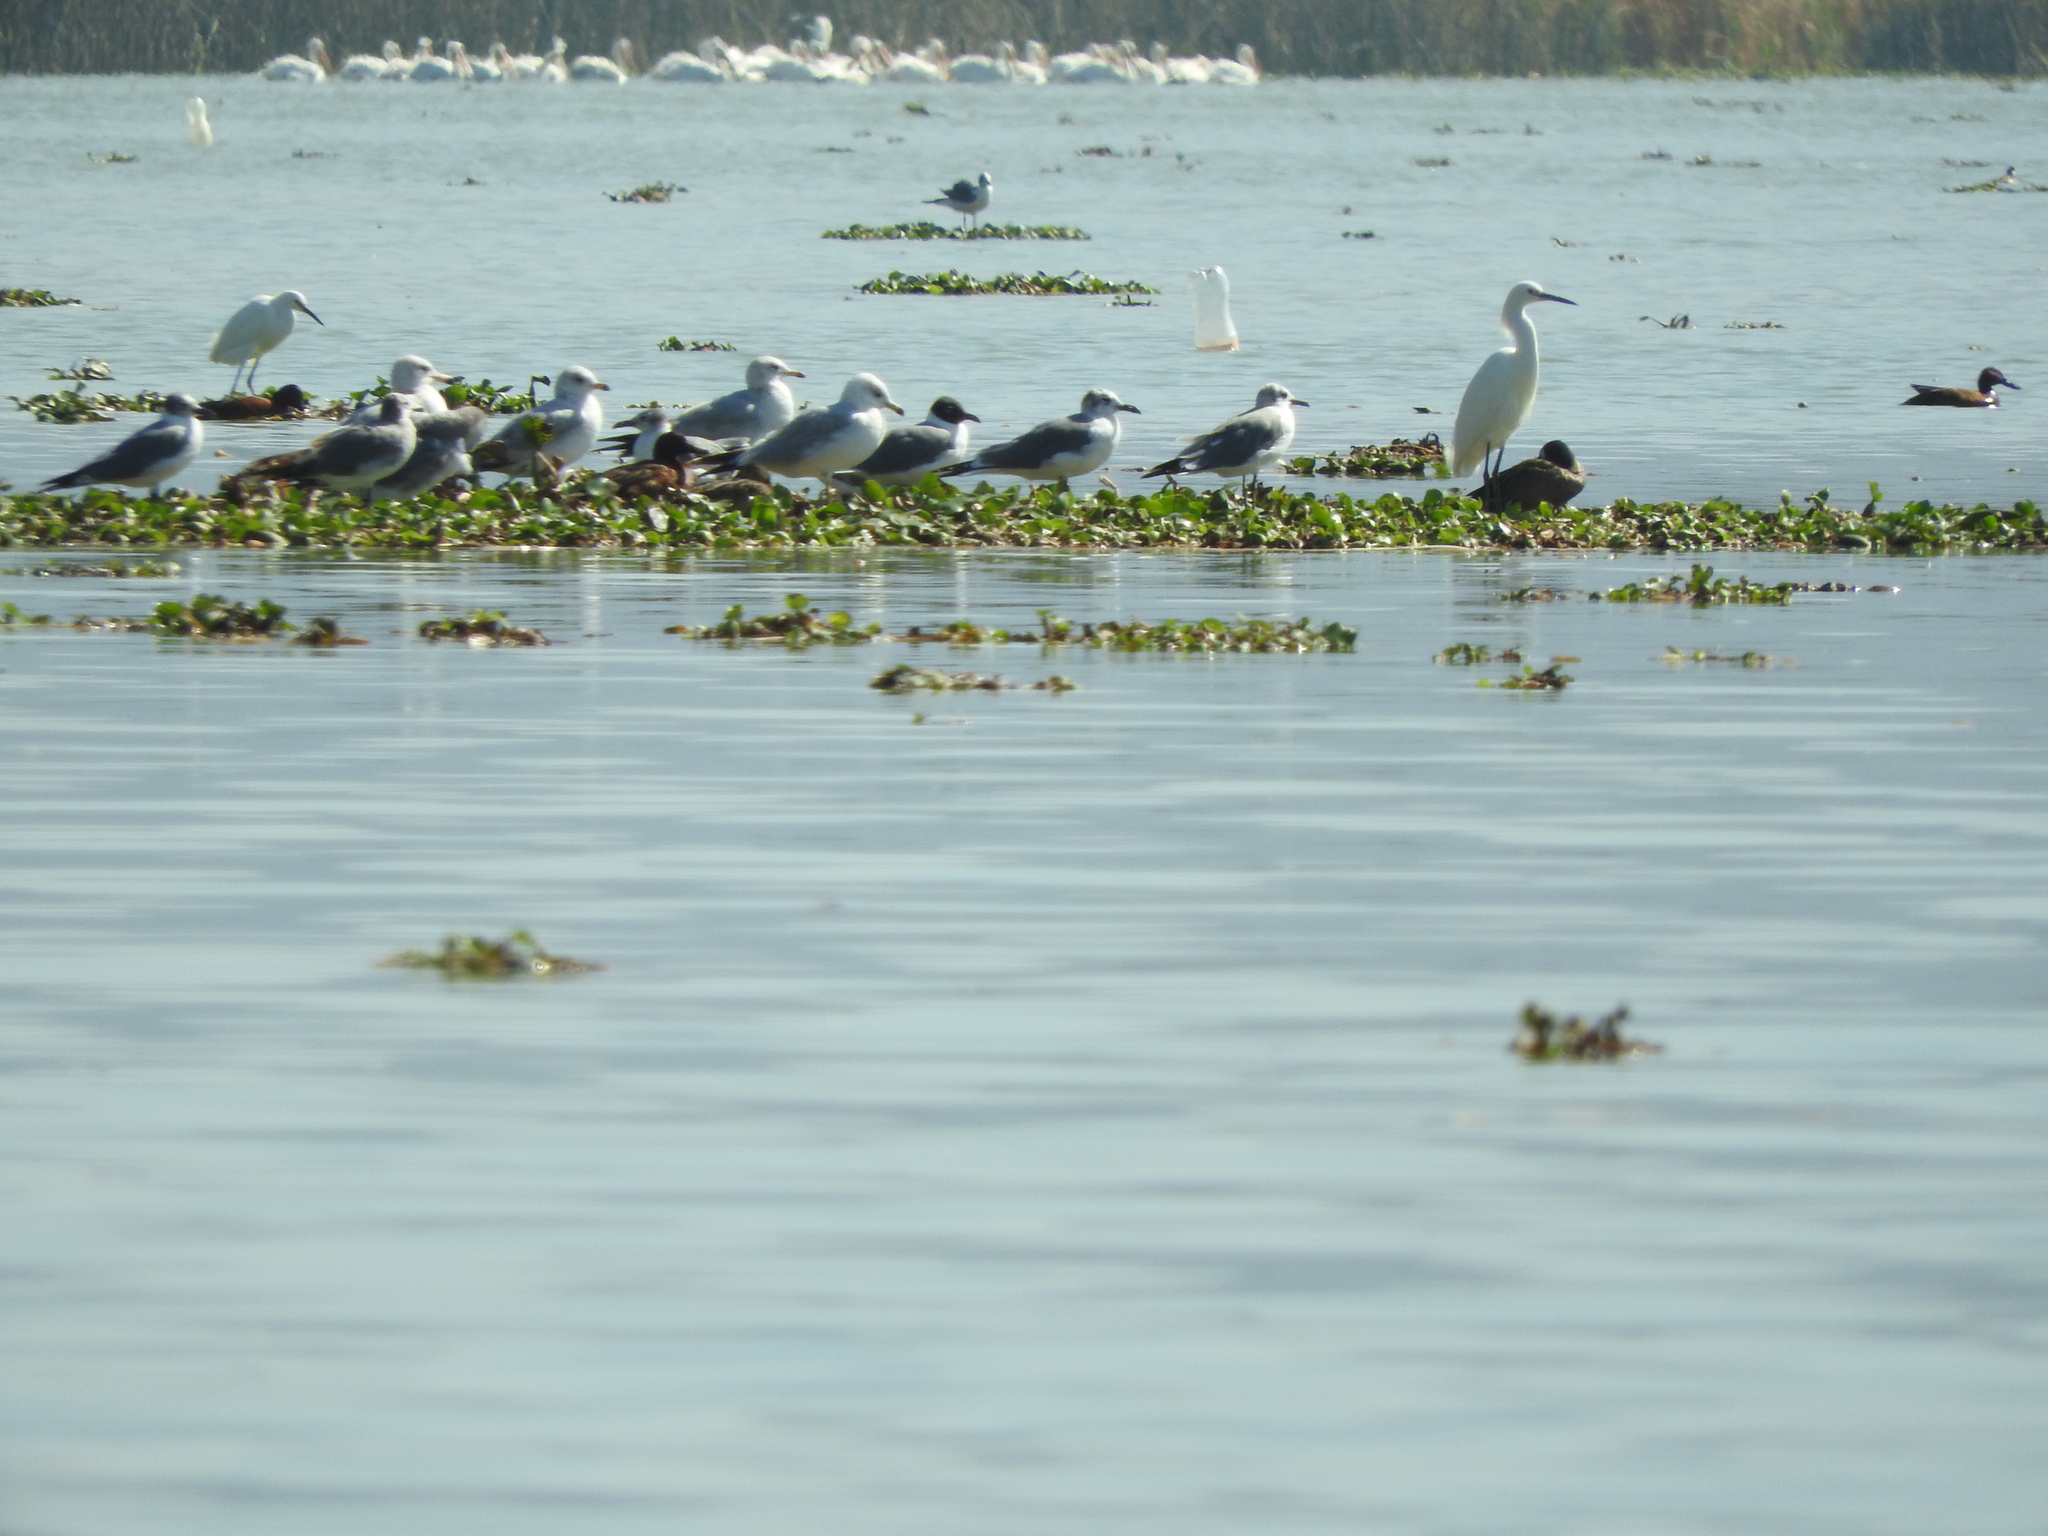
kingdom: Animalia
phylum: Chordata
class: Aves
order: Anseriformes
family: Anatidae
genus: Spatula
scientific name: Spatula cyanoptera
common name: Cinnamon teal
